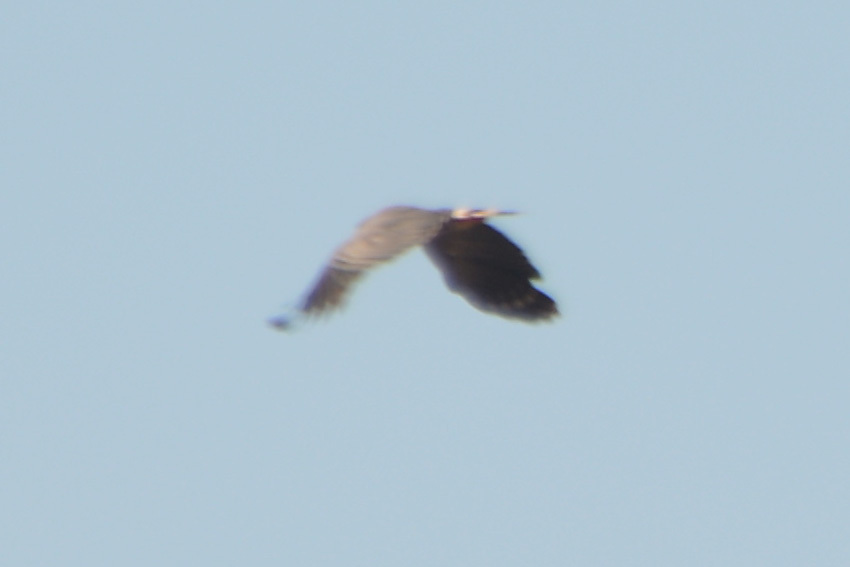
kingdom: Animalia
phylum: Chordata
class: Aves
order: Accipitriformes
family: Accipitridae
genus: Geranospiza
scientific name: Geranospiza caerulescens
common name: Crane hawk
